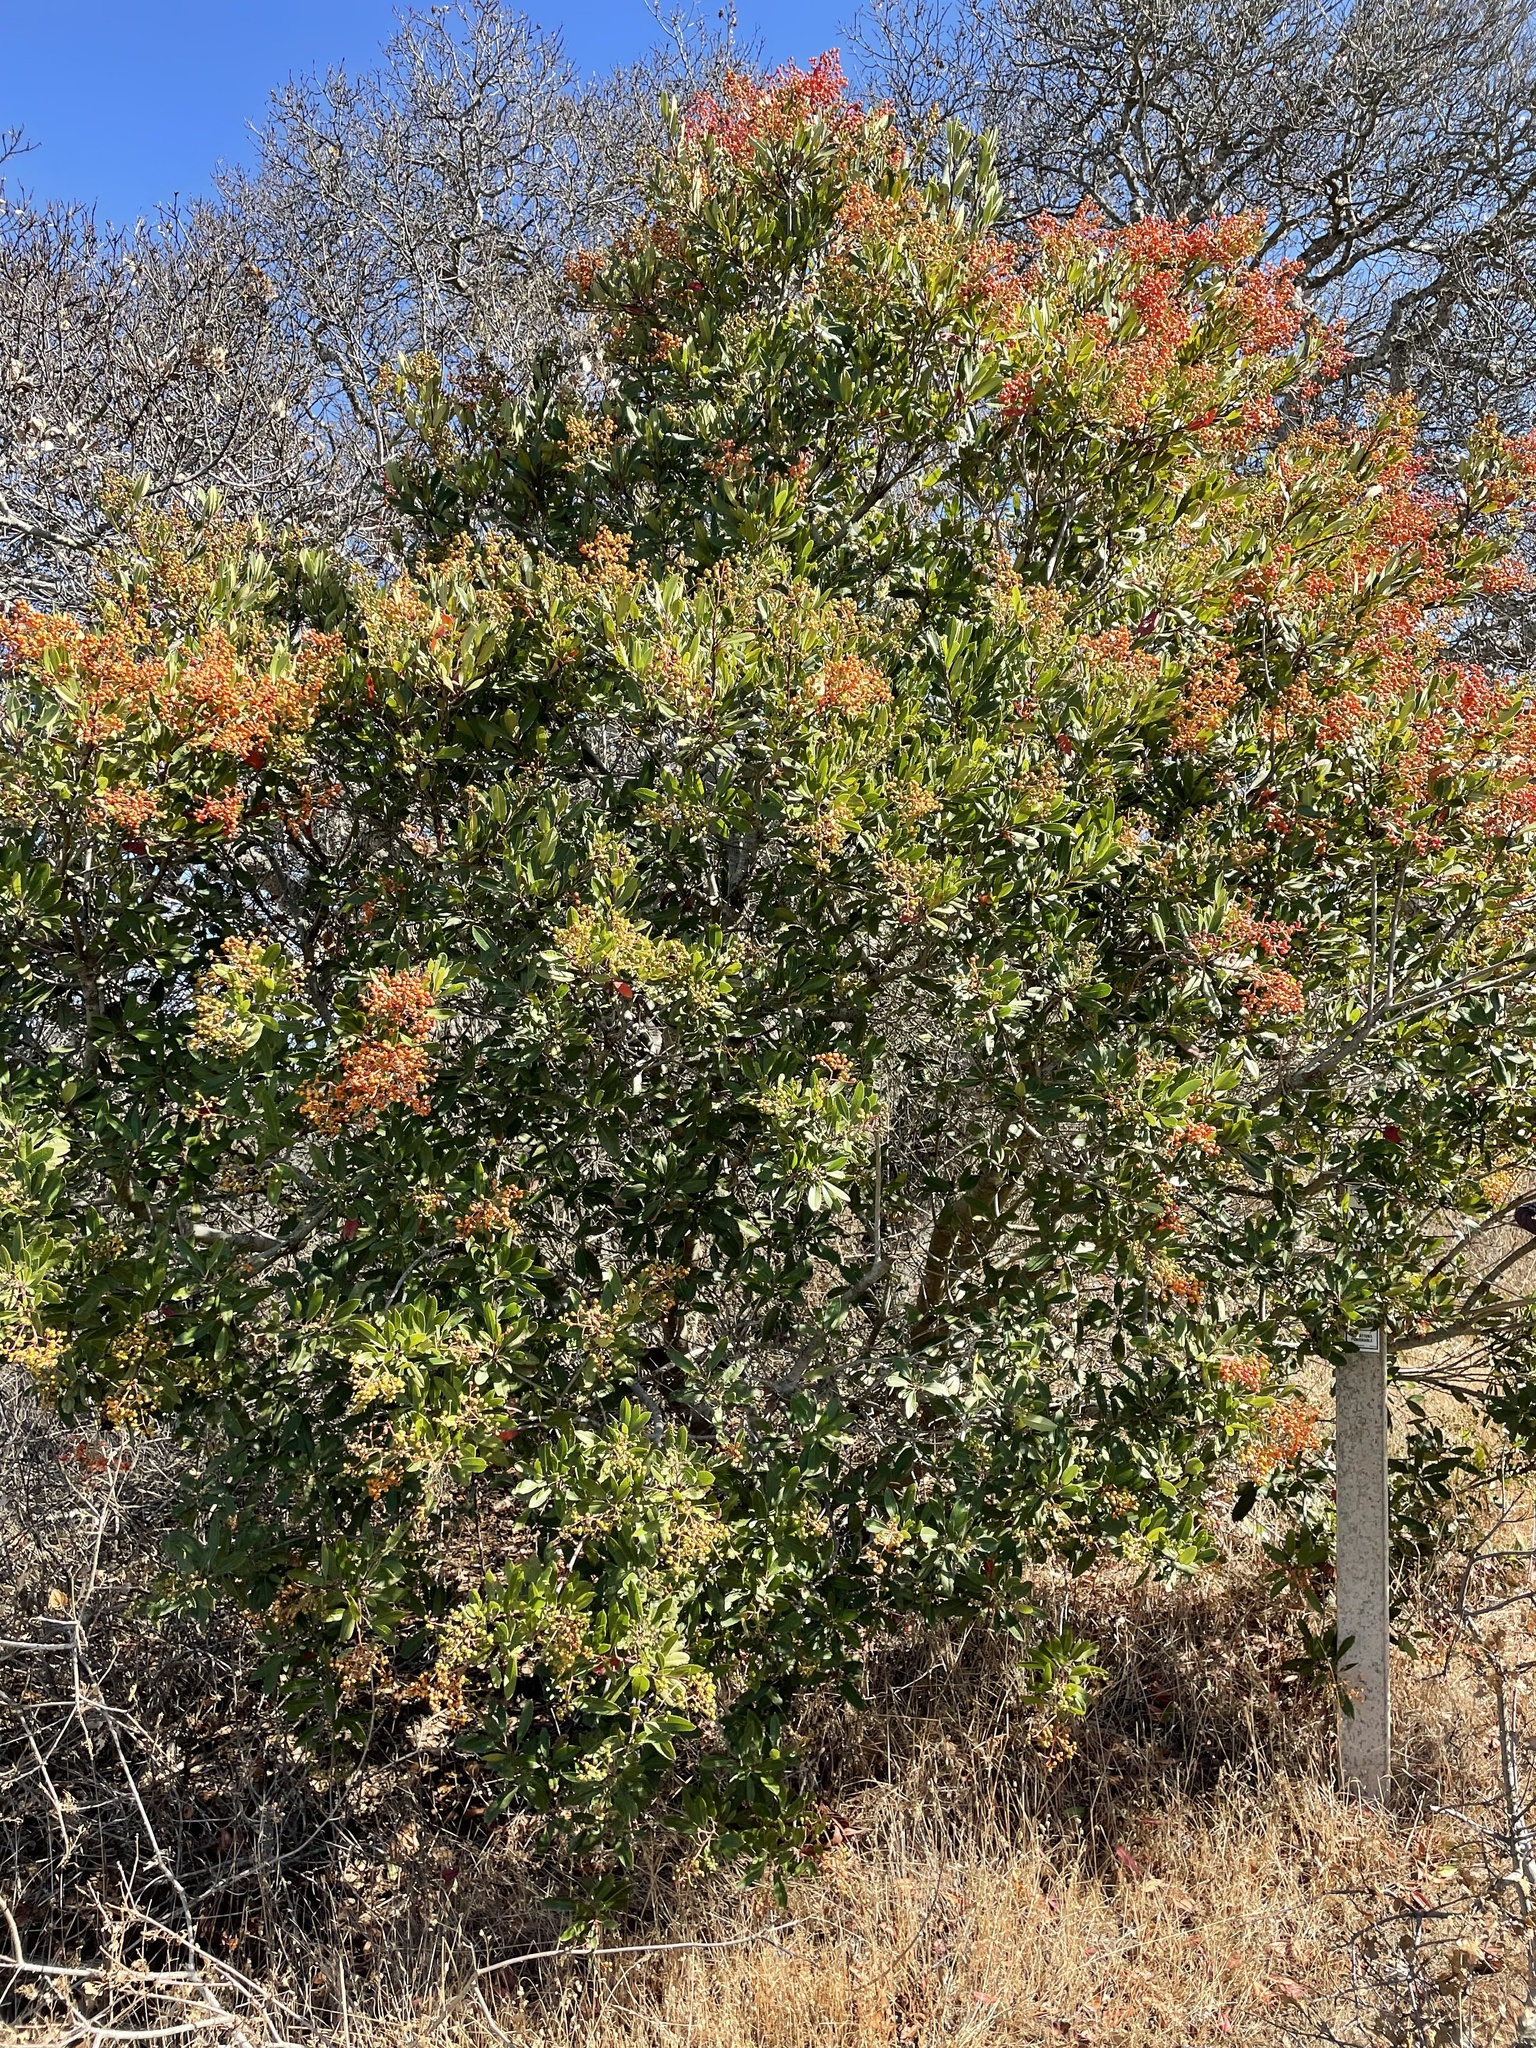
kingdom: Plantae
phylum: Tracheophyta
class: Magnoliopsida
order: Rosales
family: Rosaceae
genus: Heteromeles
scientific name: Heteromeles arbutifolia
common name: California-holly
